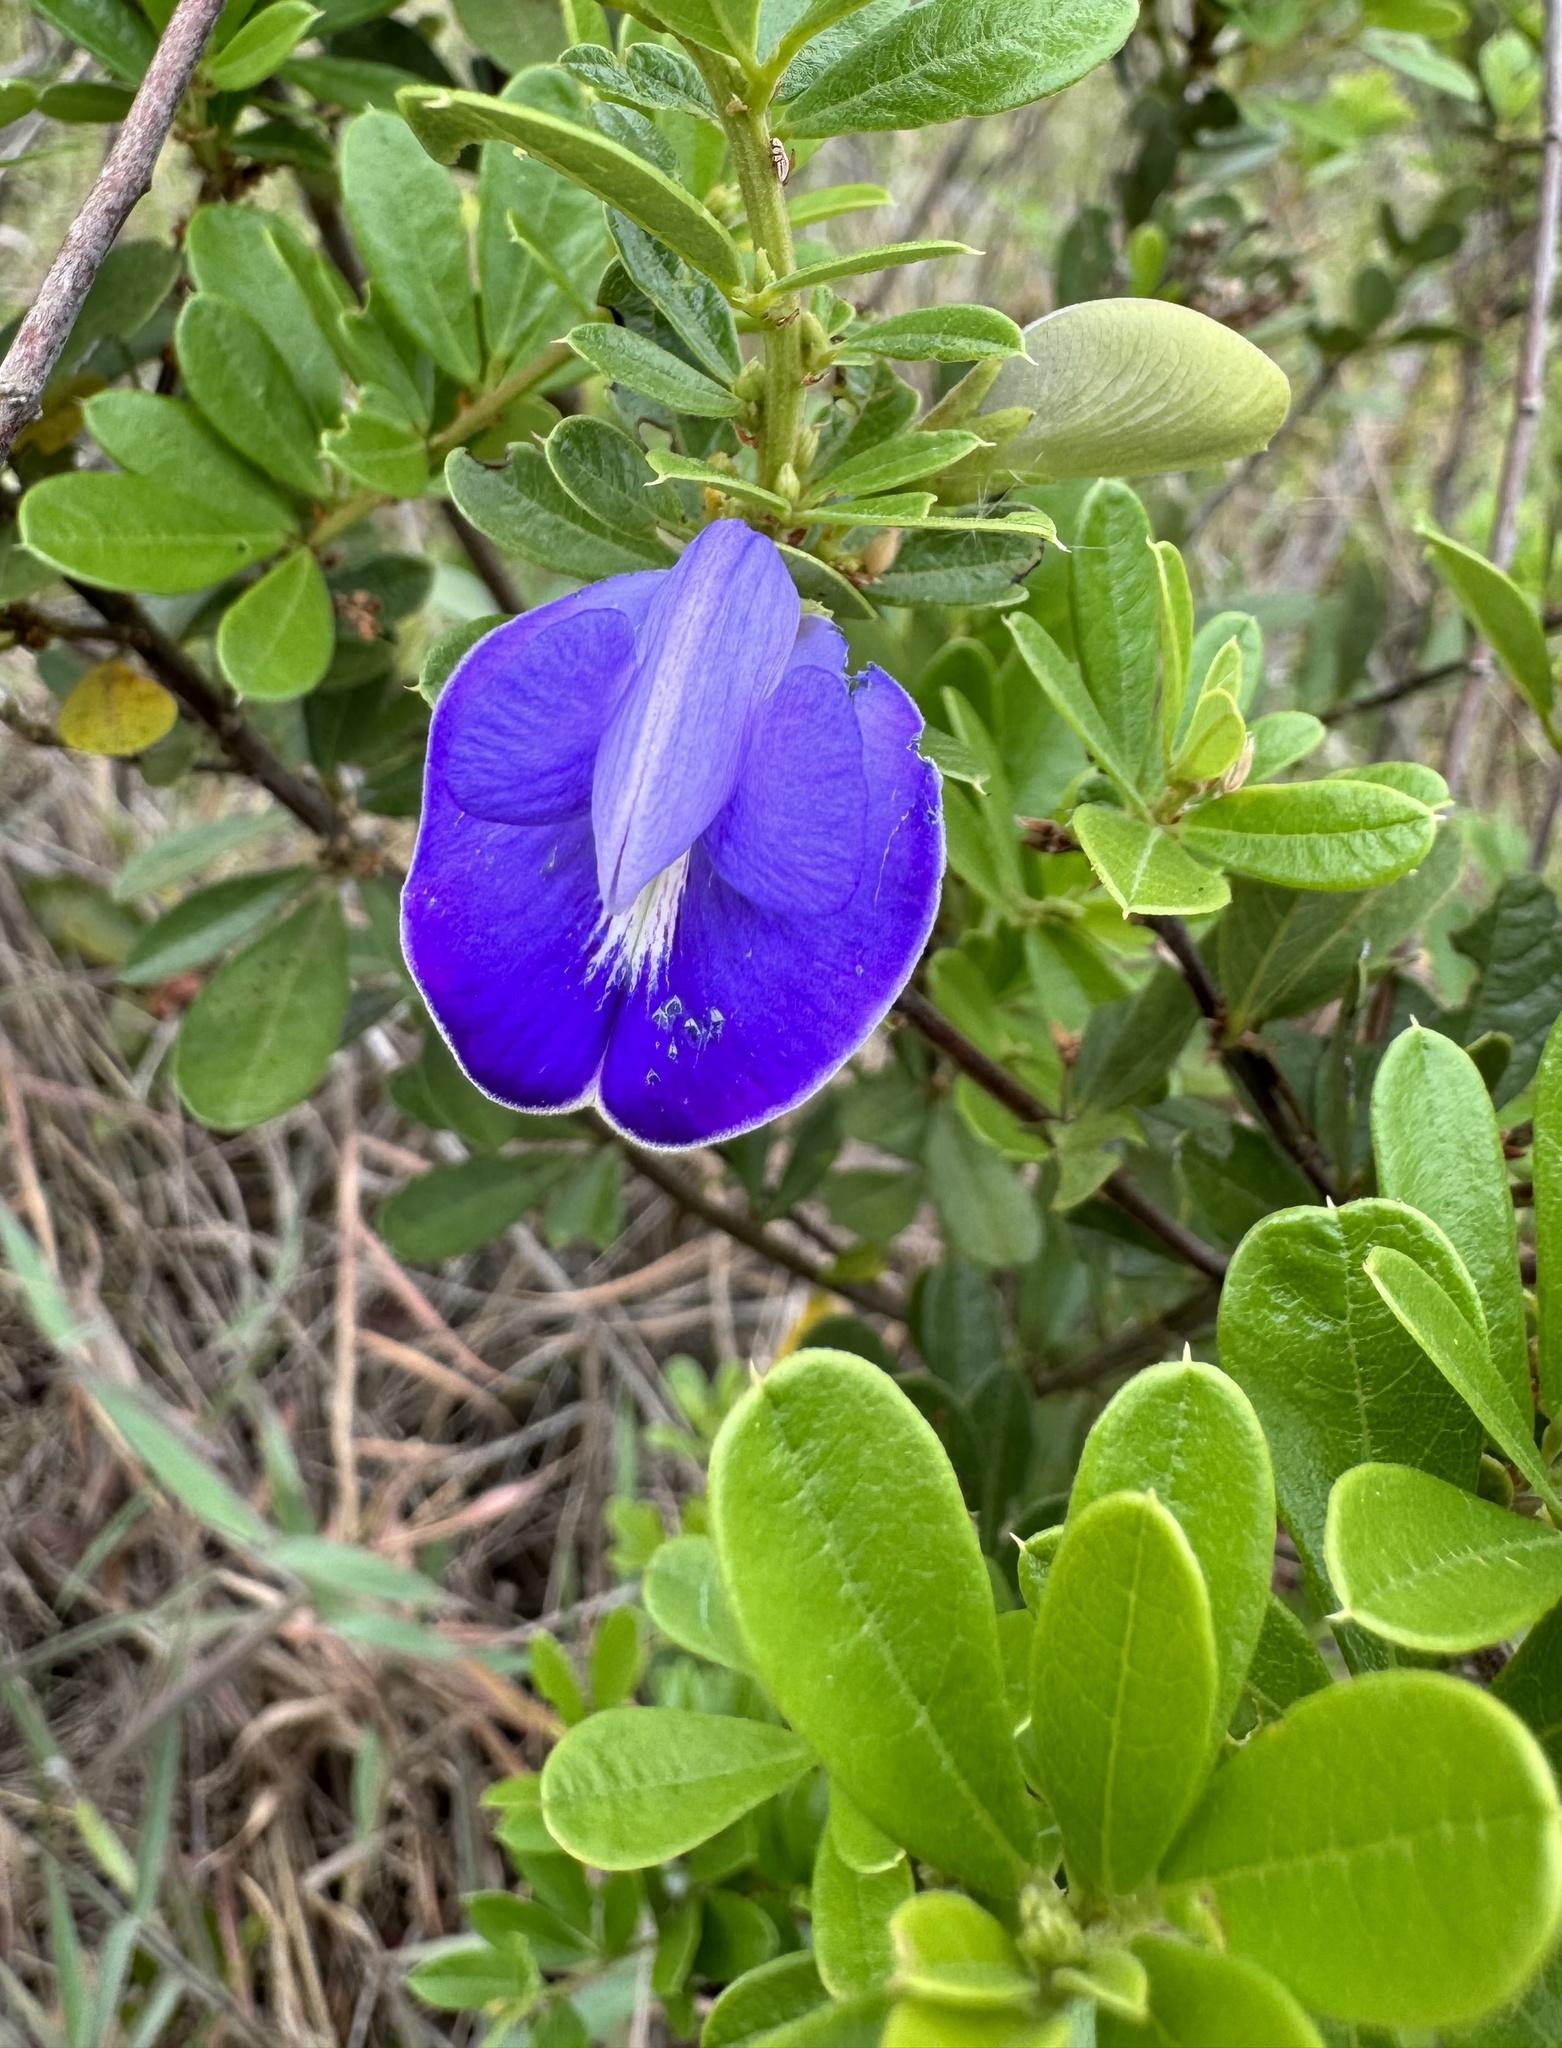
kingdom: Plantae
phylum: Tracheophyta
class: Magnoliopsida
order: Fabales
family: Fabaceae
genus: Periandra
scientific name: Periandra mediterranea
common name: Brazilian licorice
